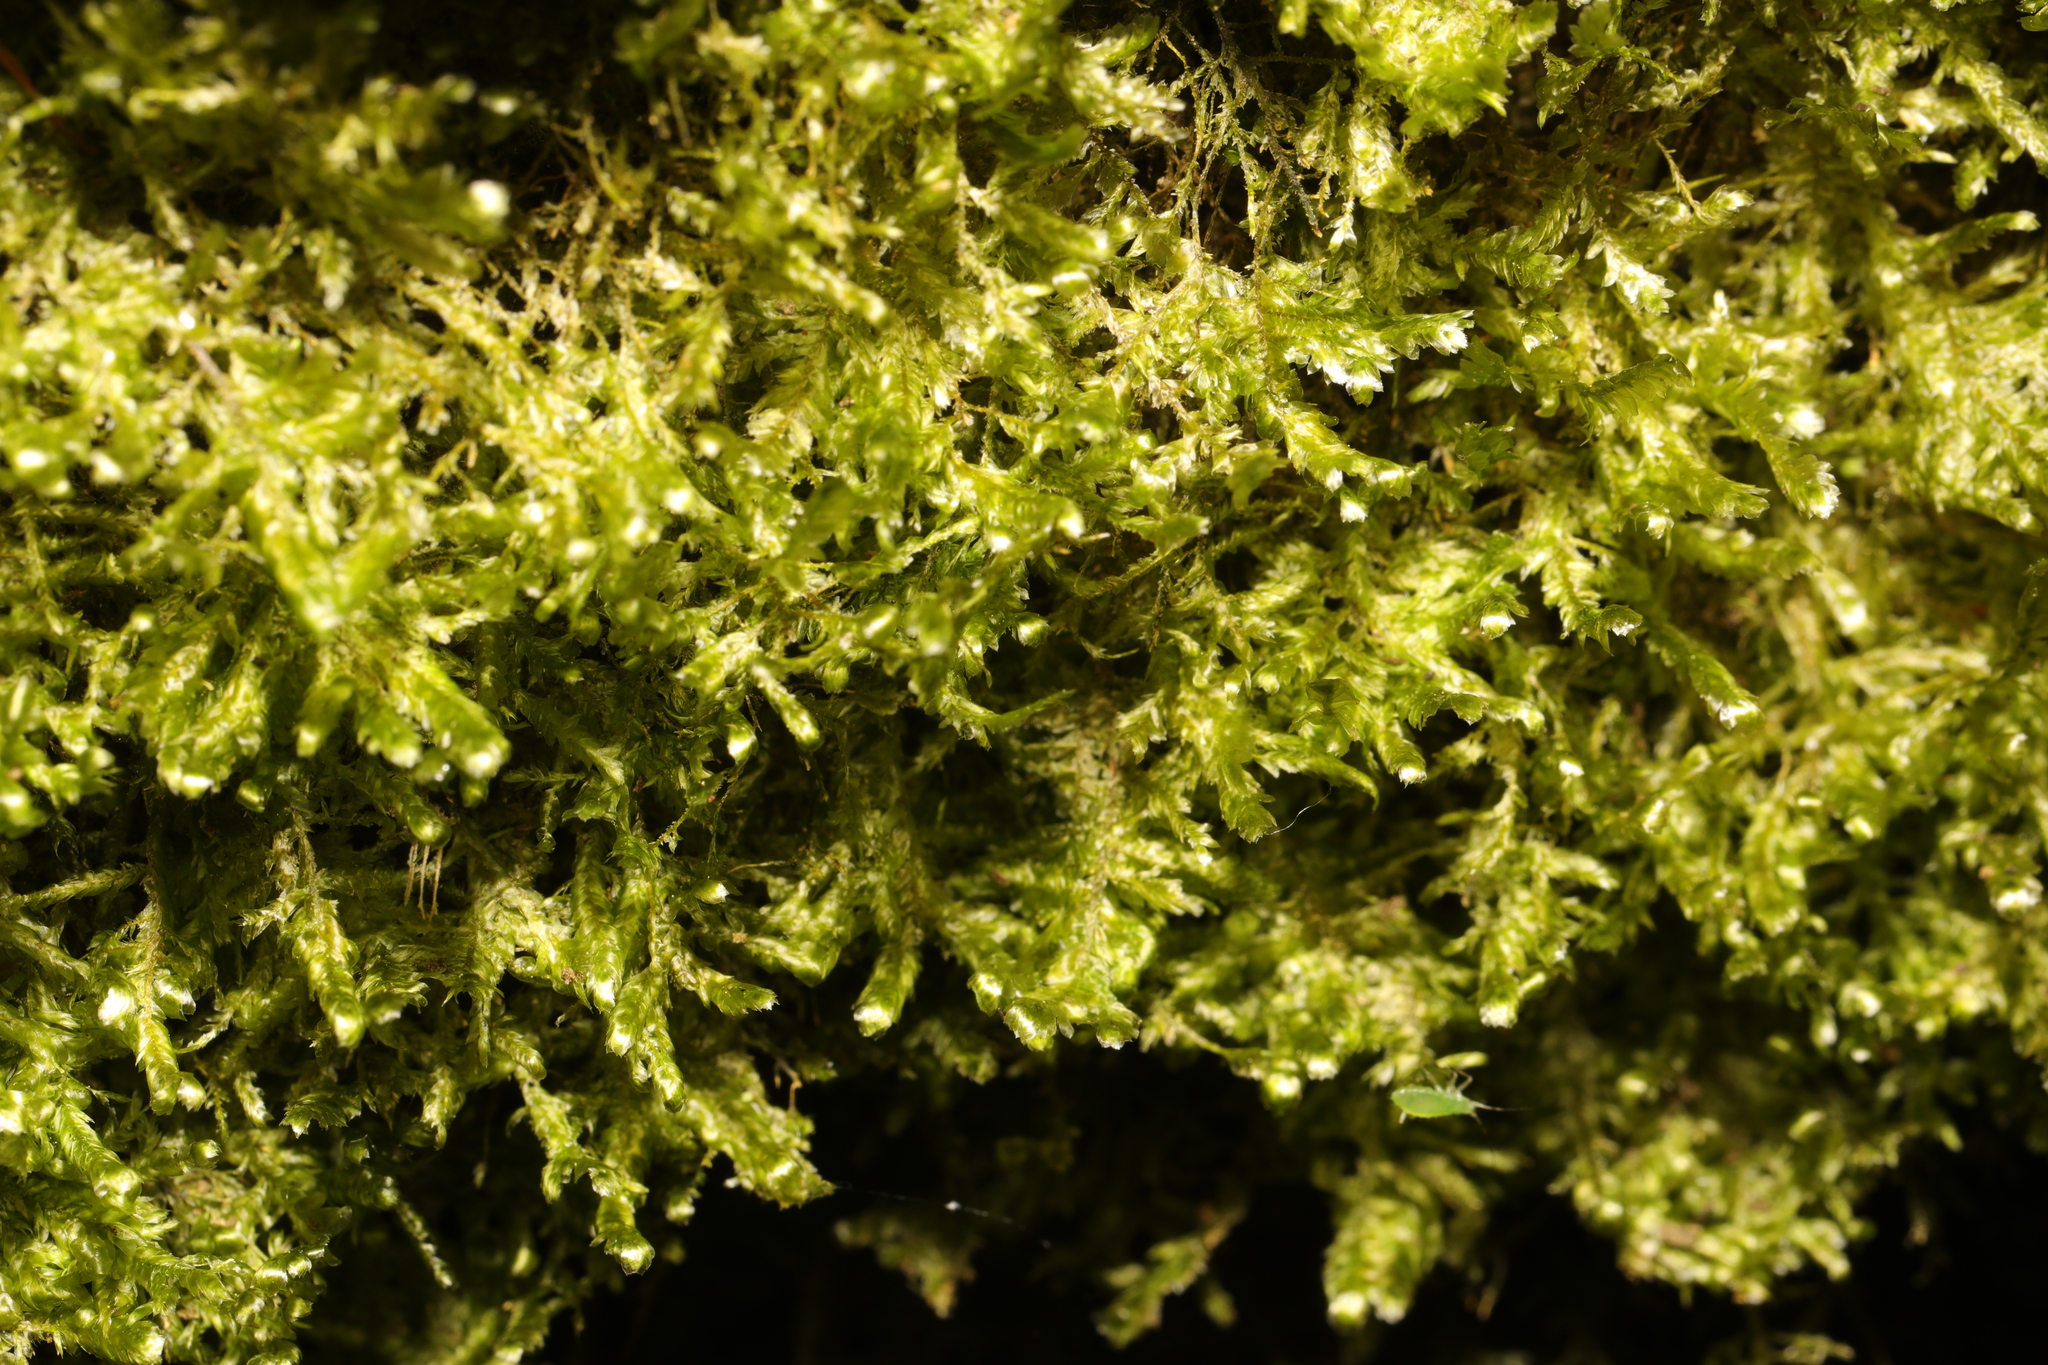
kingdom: Plantae
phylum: Bryophyta
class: Bryopsida
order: Hypnales
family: Neckeraceae
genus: Alleniella
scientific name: Alleniella complanata
